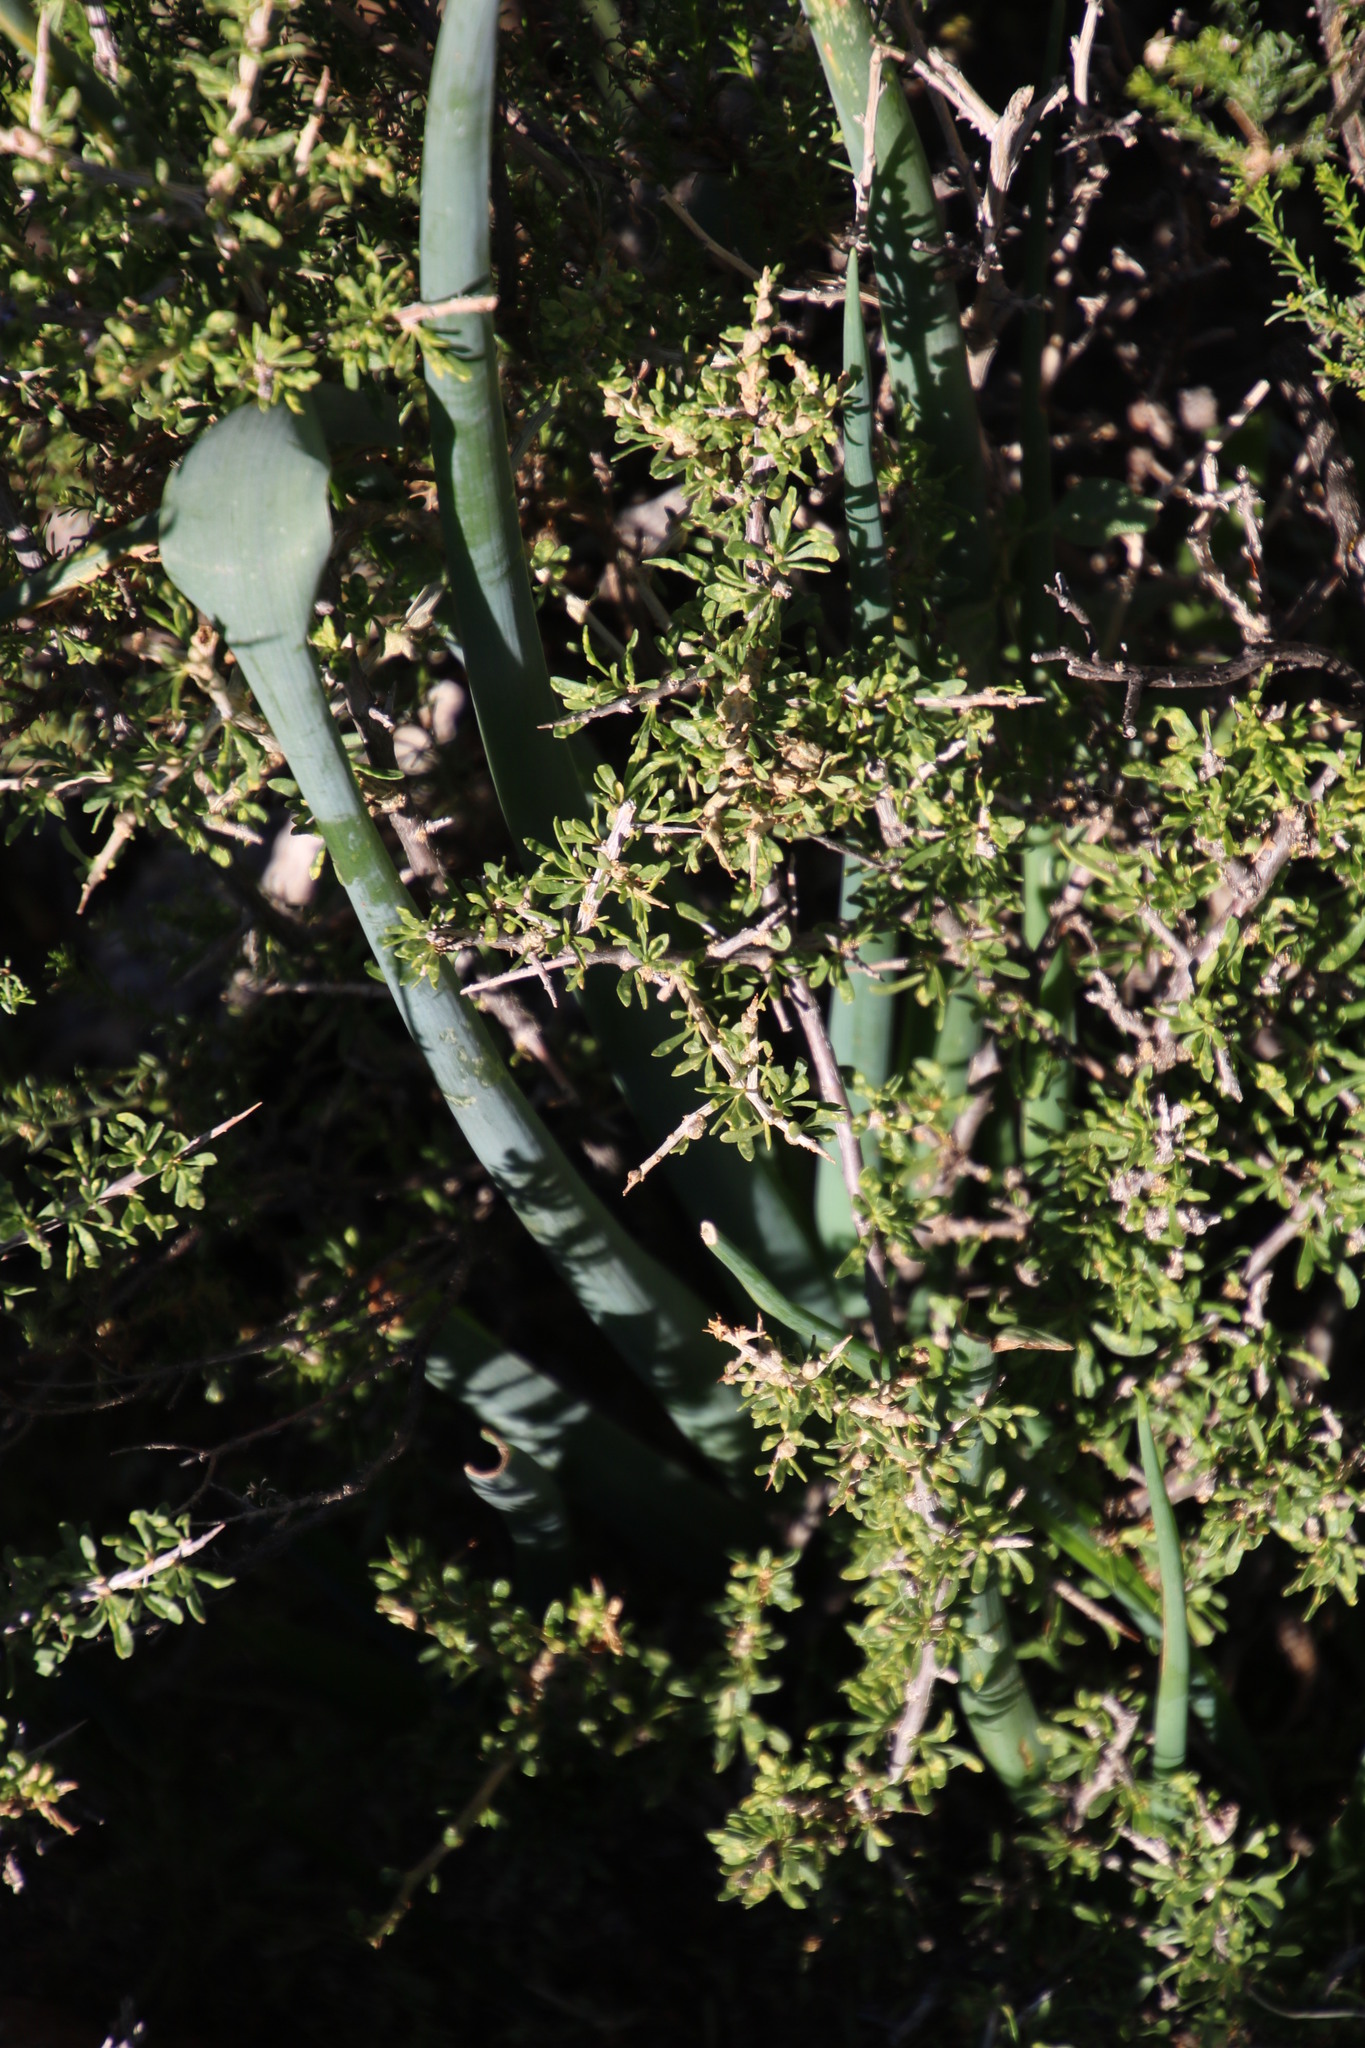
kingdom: Plantae
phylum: Tracheophyta
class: Liliopsida
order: Asparagales
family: Asparagaceae
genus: Albuca
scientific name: Albuca setosa
